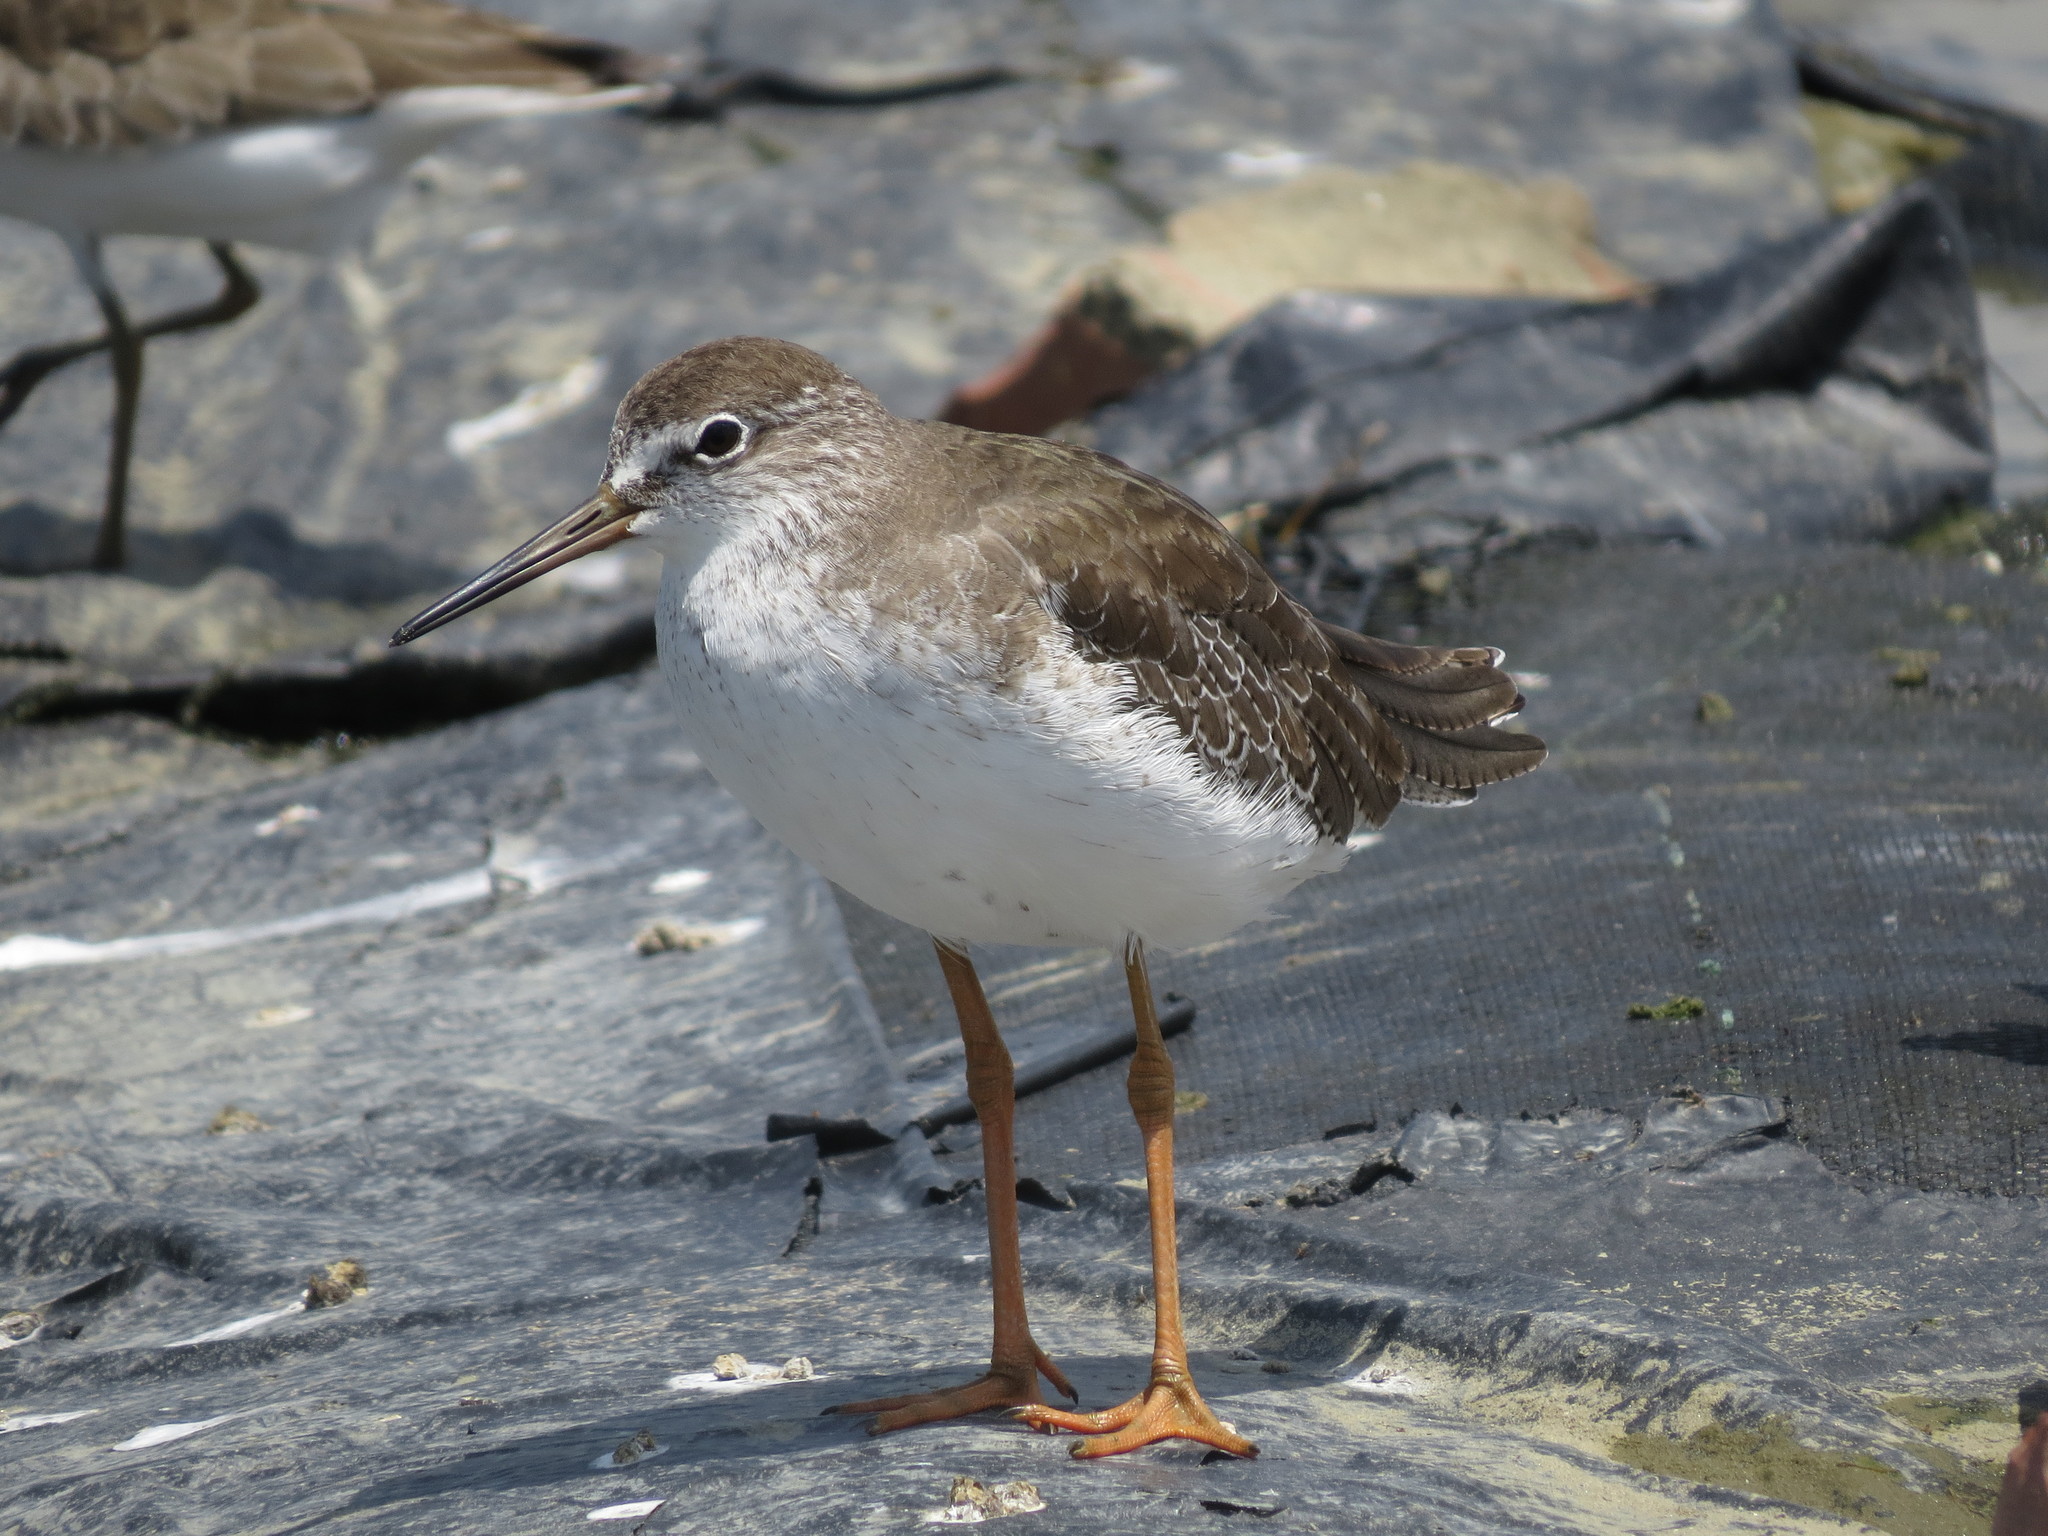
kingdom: Animalia
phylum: Chordata
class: Aves
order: Charadriiformes
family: Scolopacidae
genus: Tringa
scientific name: Tringa totanus
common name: Common redshank
